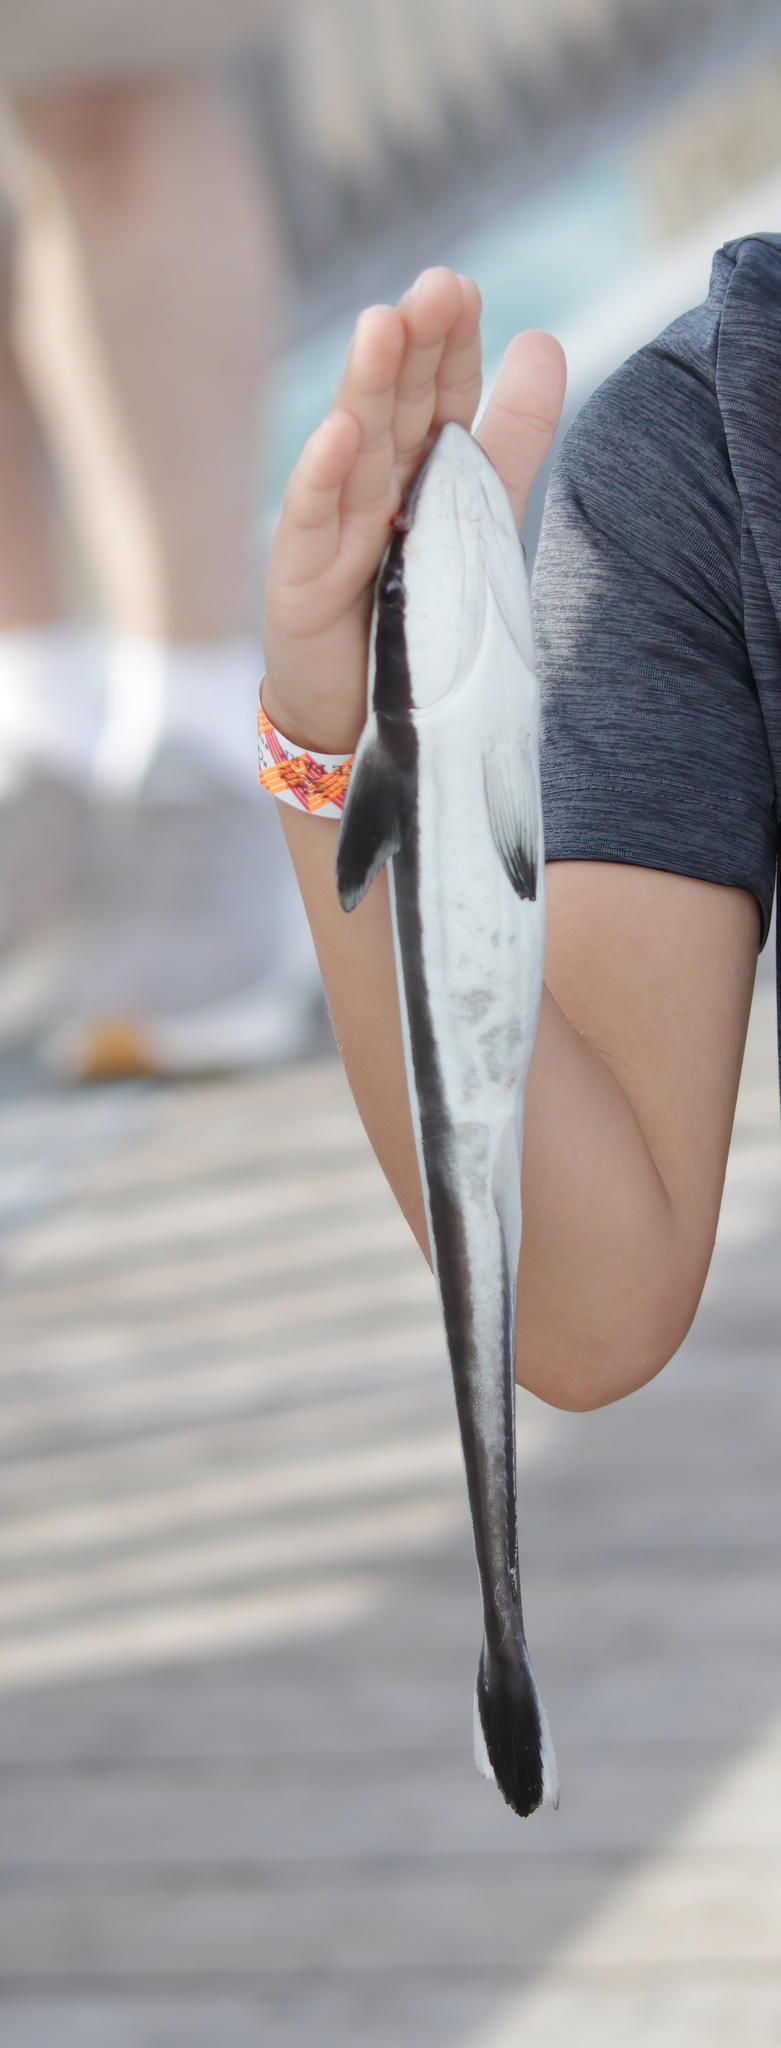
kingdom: Animalia
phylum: Chordata
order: Perciformes
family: Echeneidae
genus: Echeneis
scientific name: Echeneis neucratoides
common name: Whitefin sharksucker
